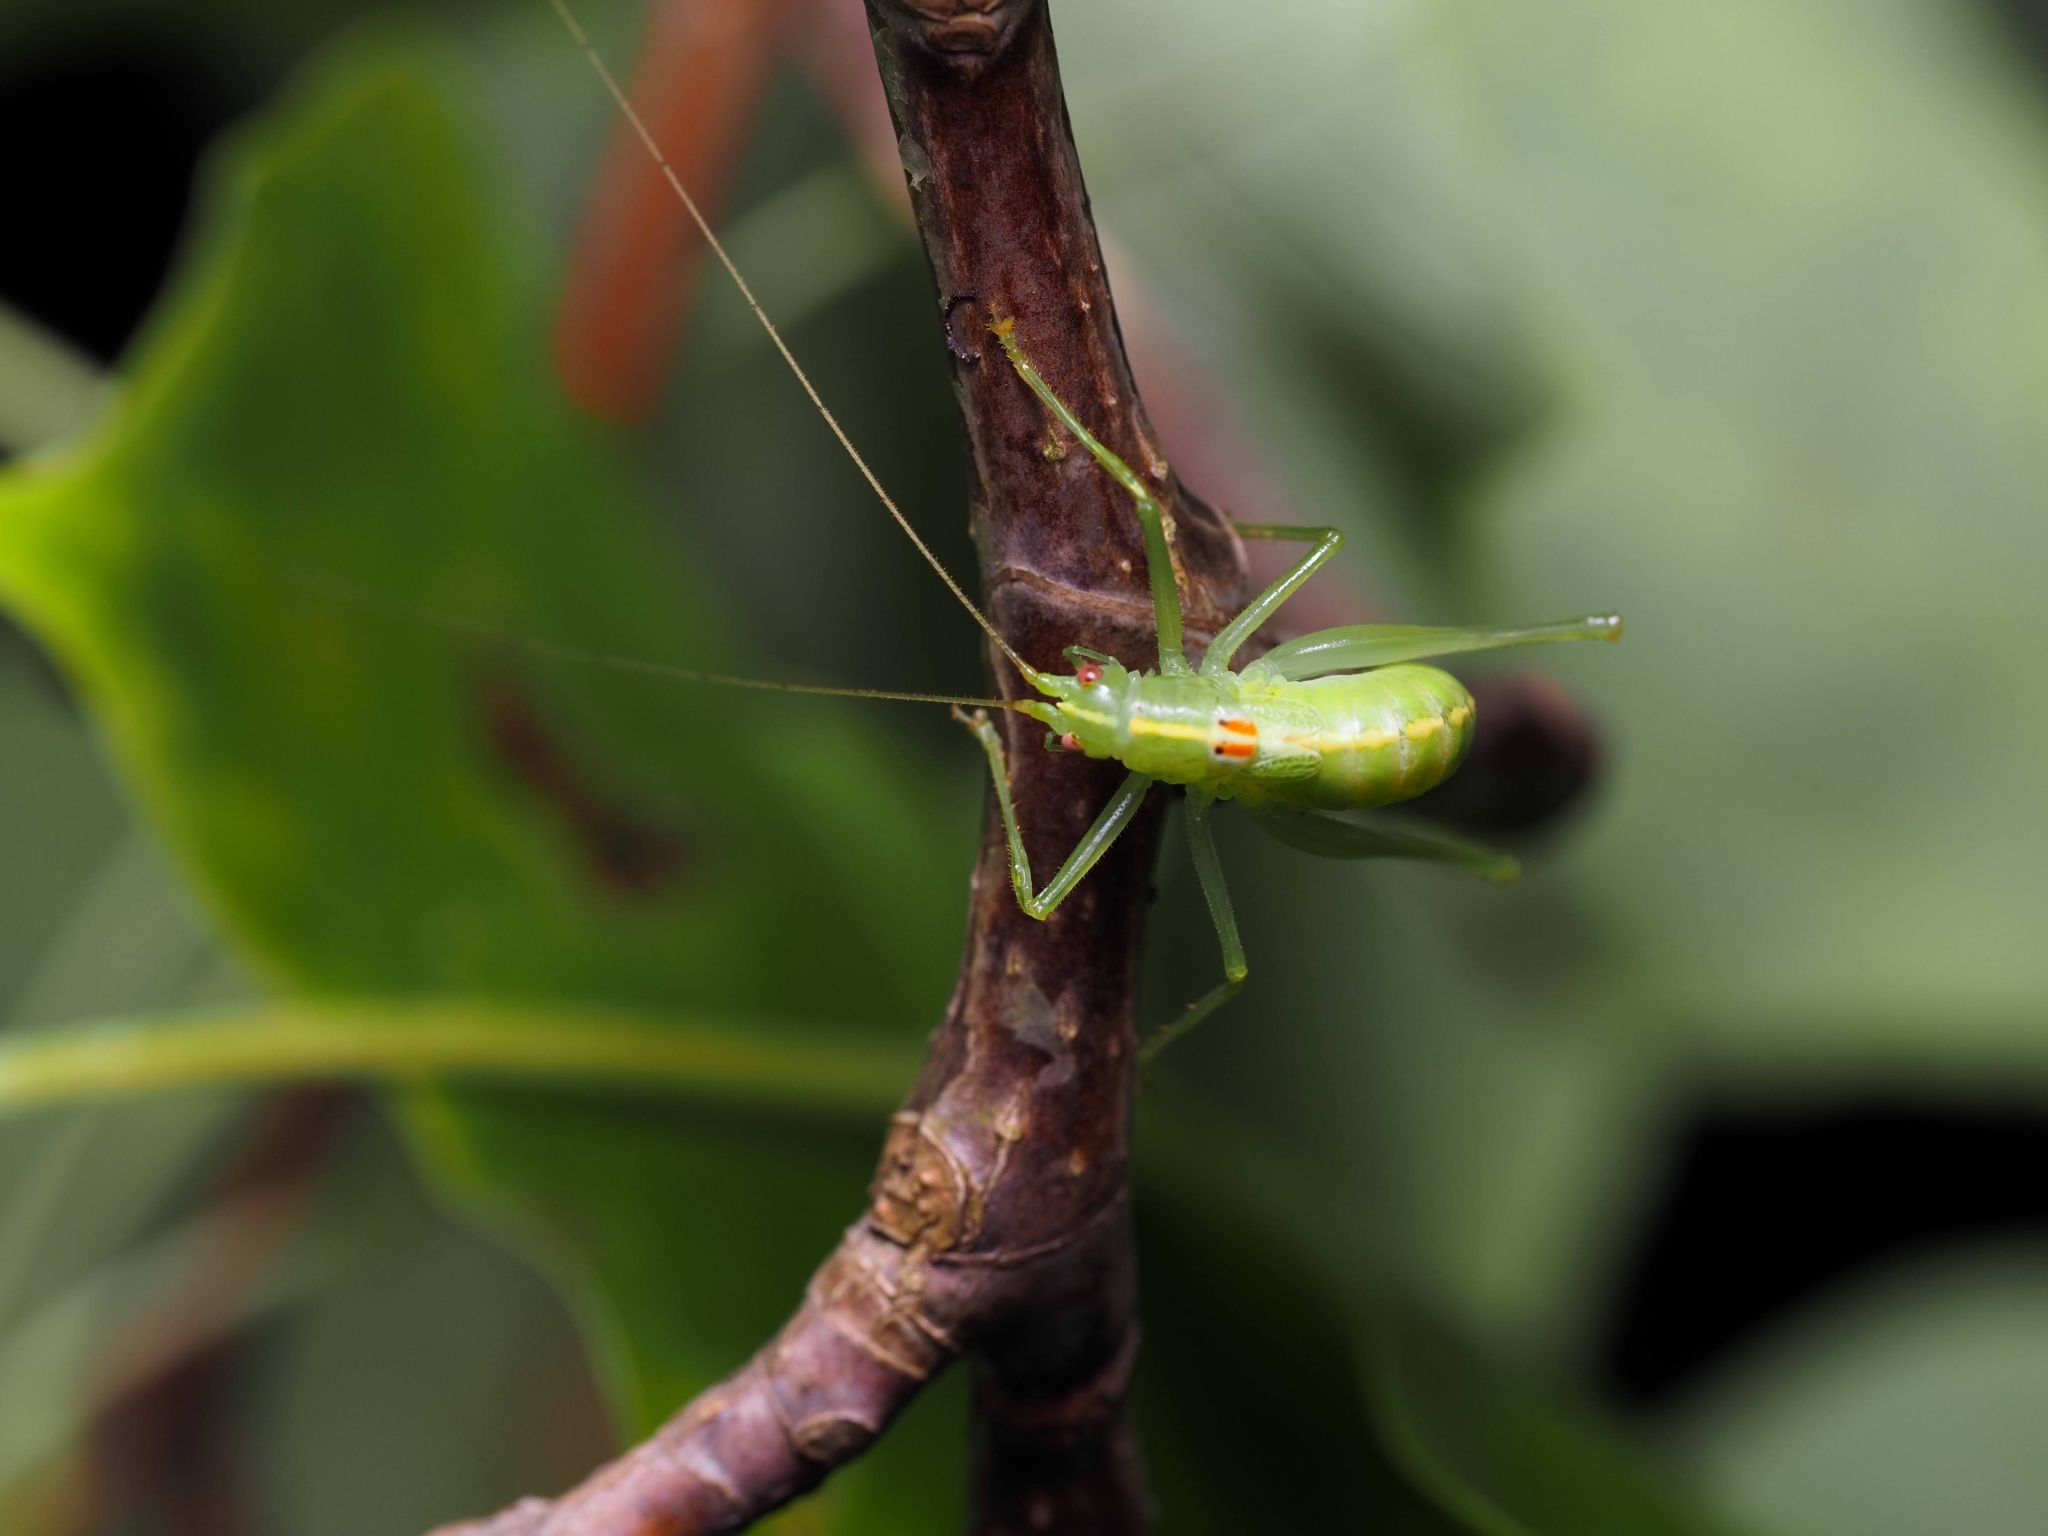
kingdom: Animalia
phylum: Arthropoda
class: Insecta
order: Orthoptera
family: Tettigoniidae
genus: Meconema
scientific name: Meconema meridionale
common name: Southern oak bush-cricket
